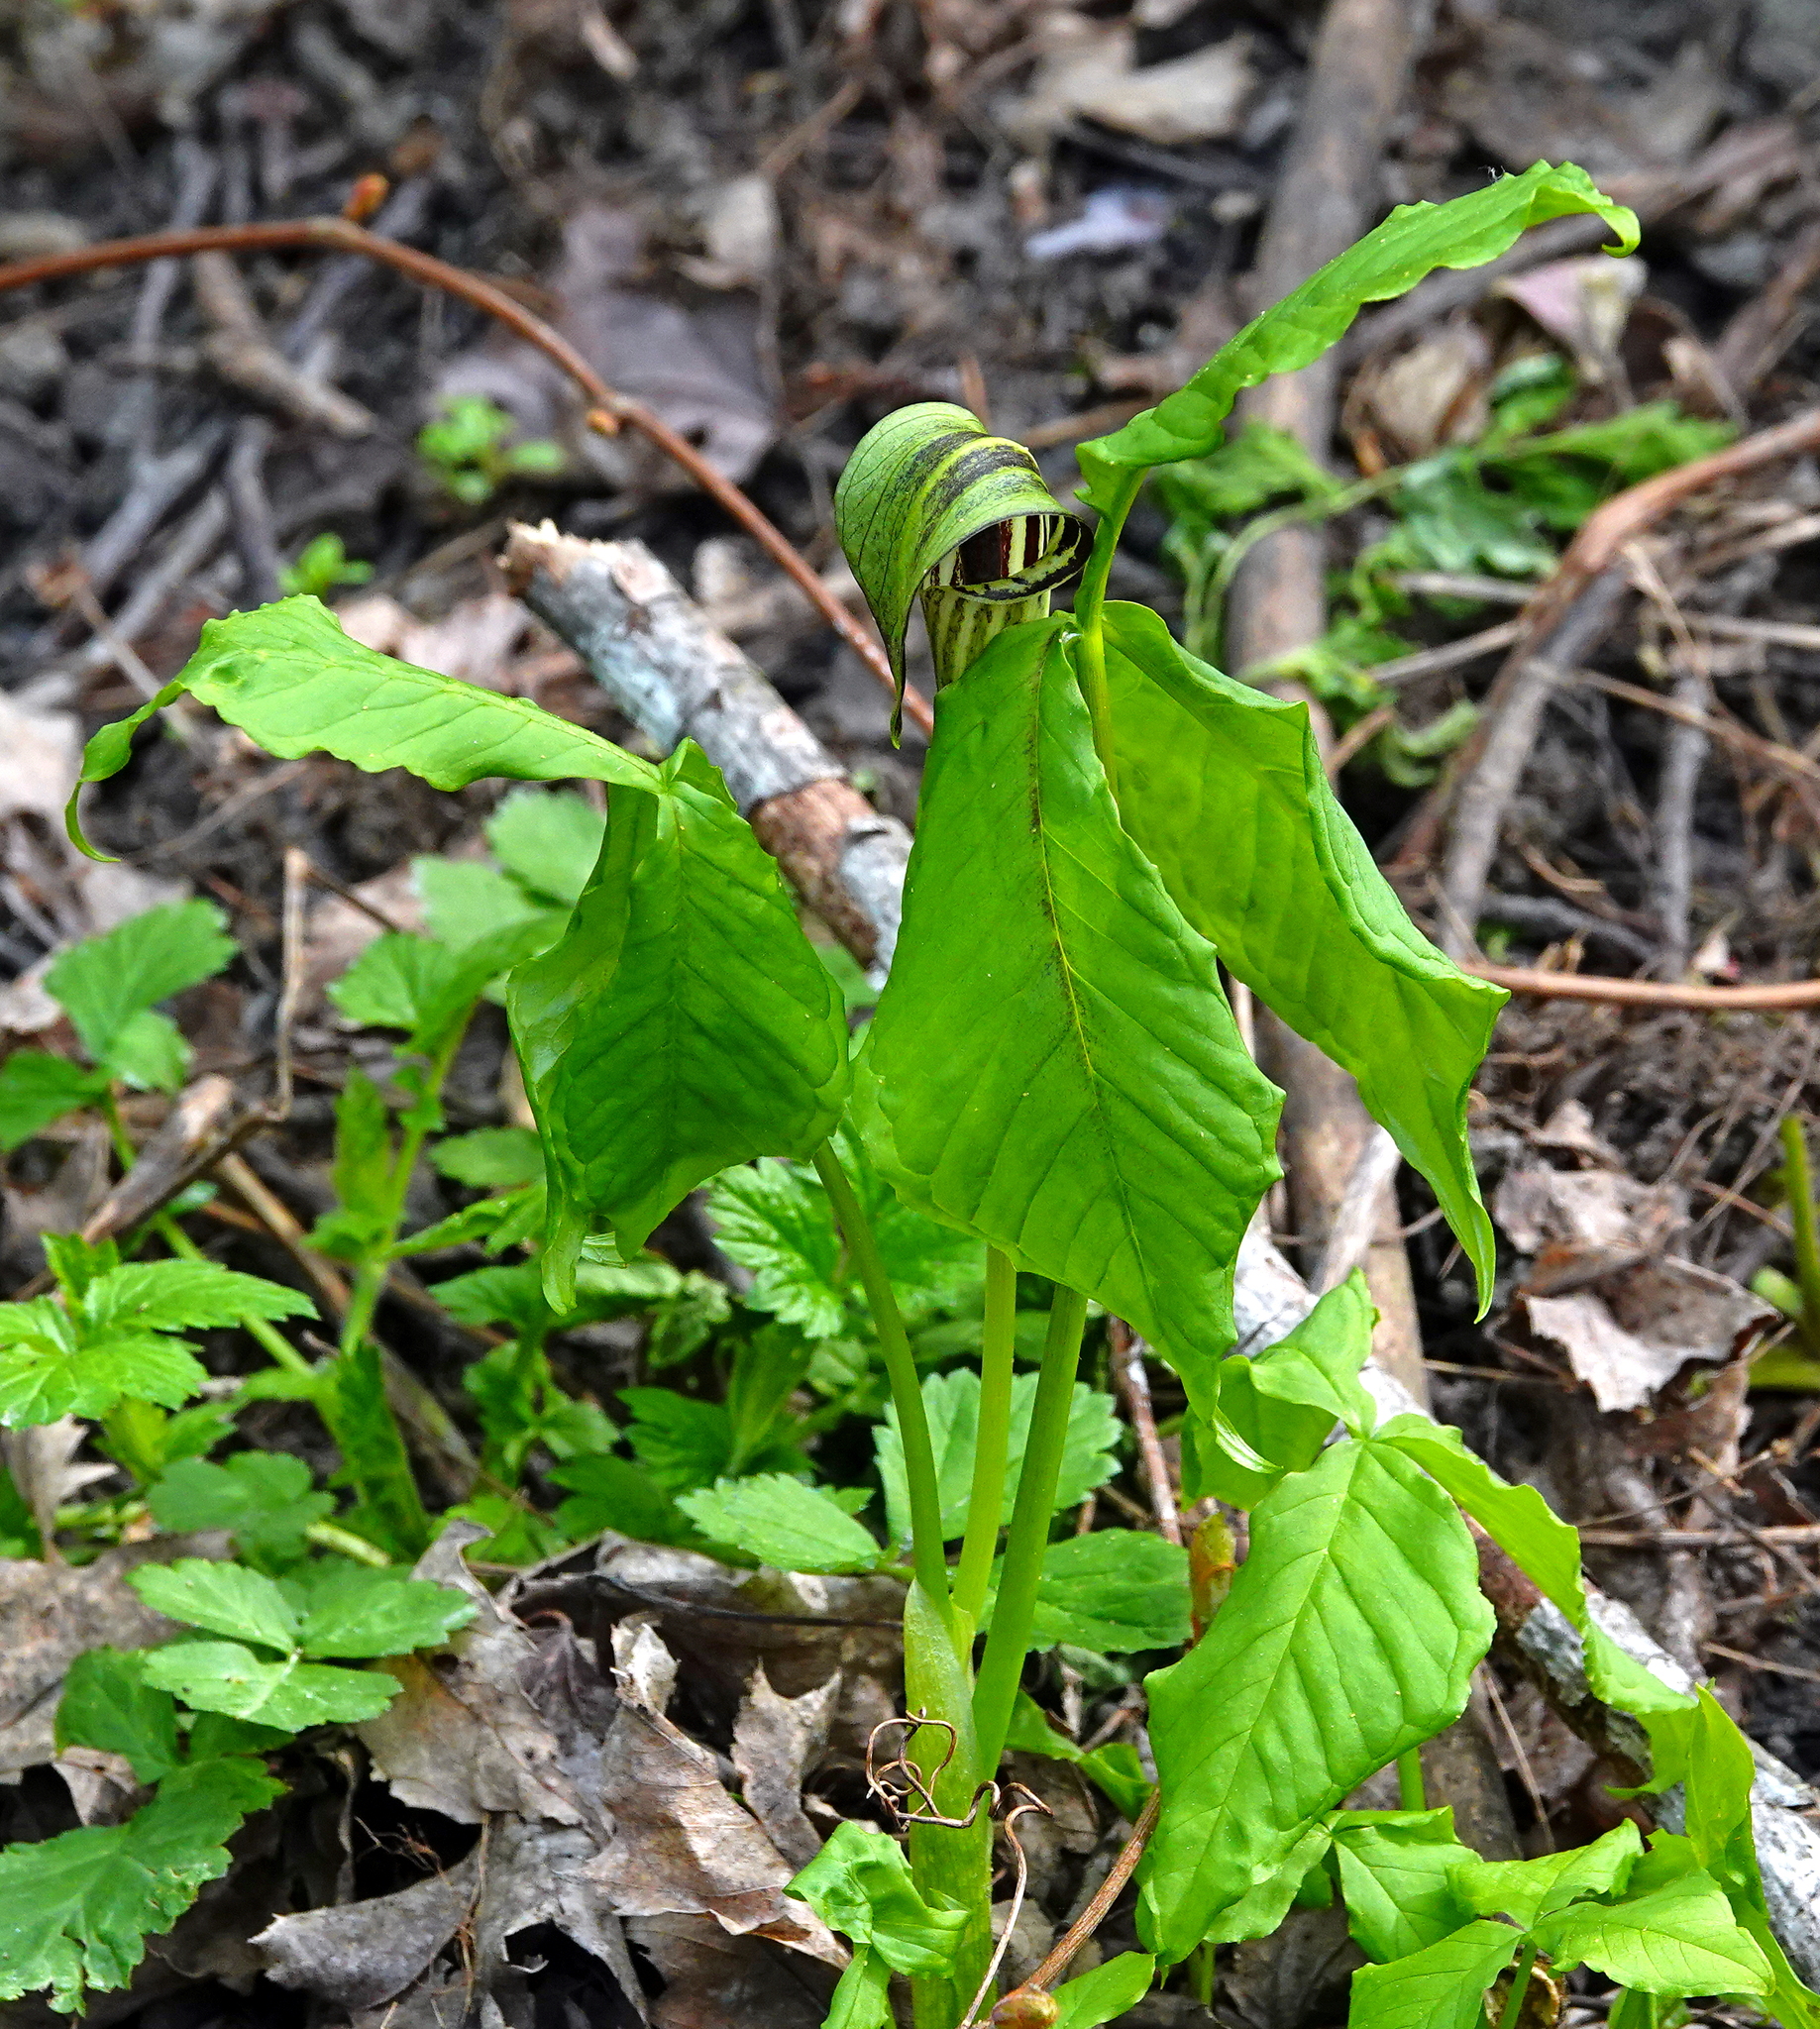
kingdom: Plantae
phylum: Tracheophyta
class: Liliopsida
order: Alismatales
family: Araceae
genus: Arisaema
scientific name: Arisaema triphyllum
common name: Jack-in-the-pulpit
